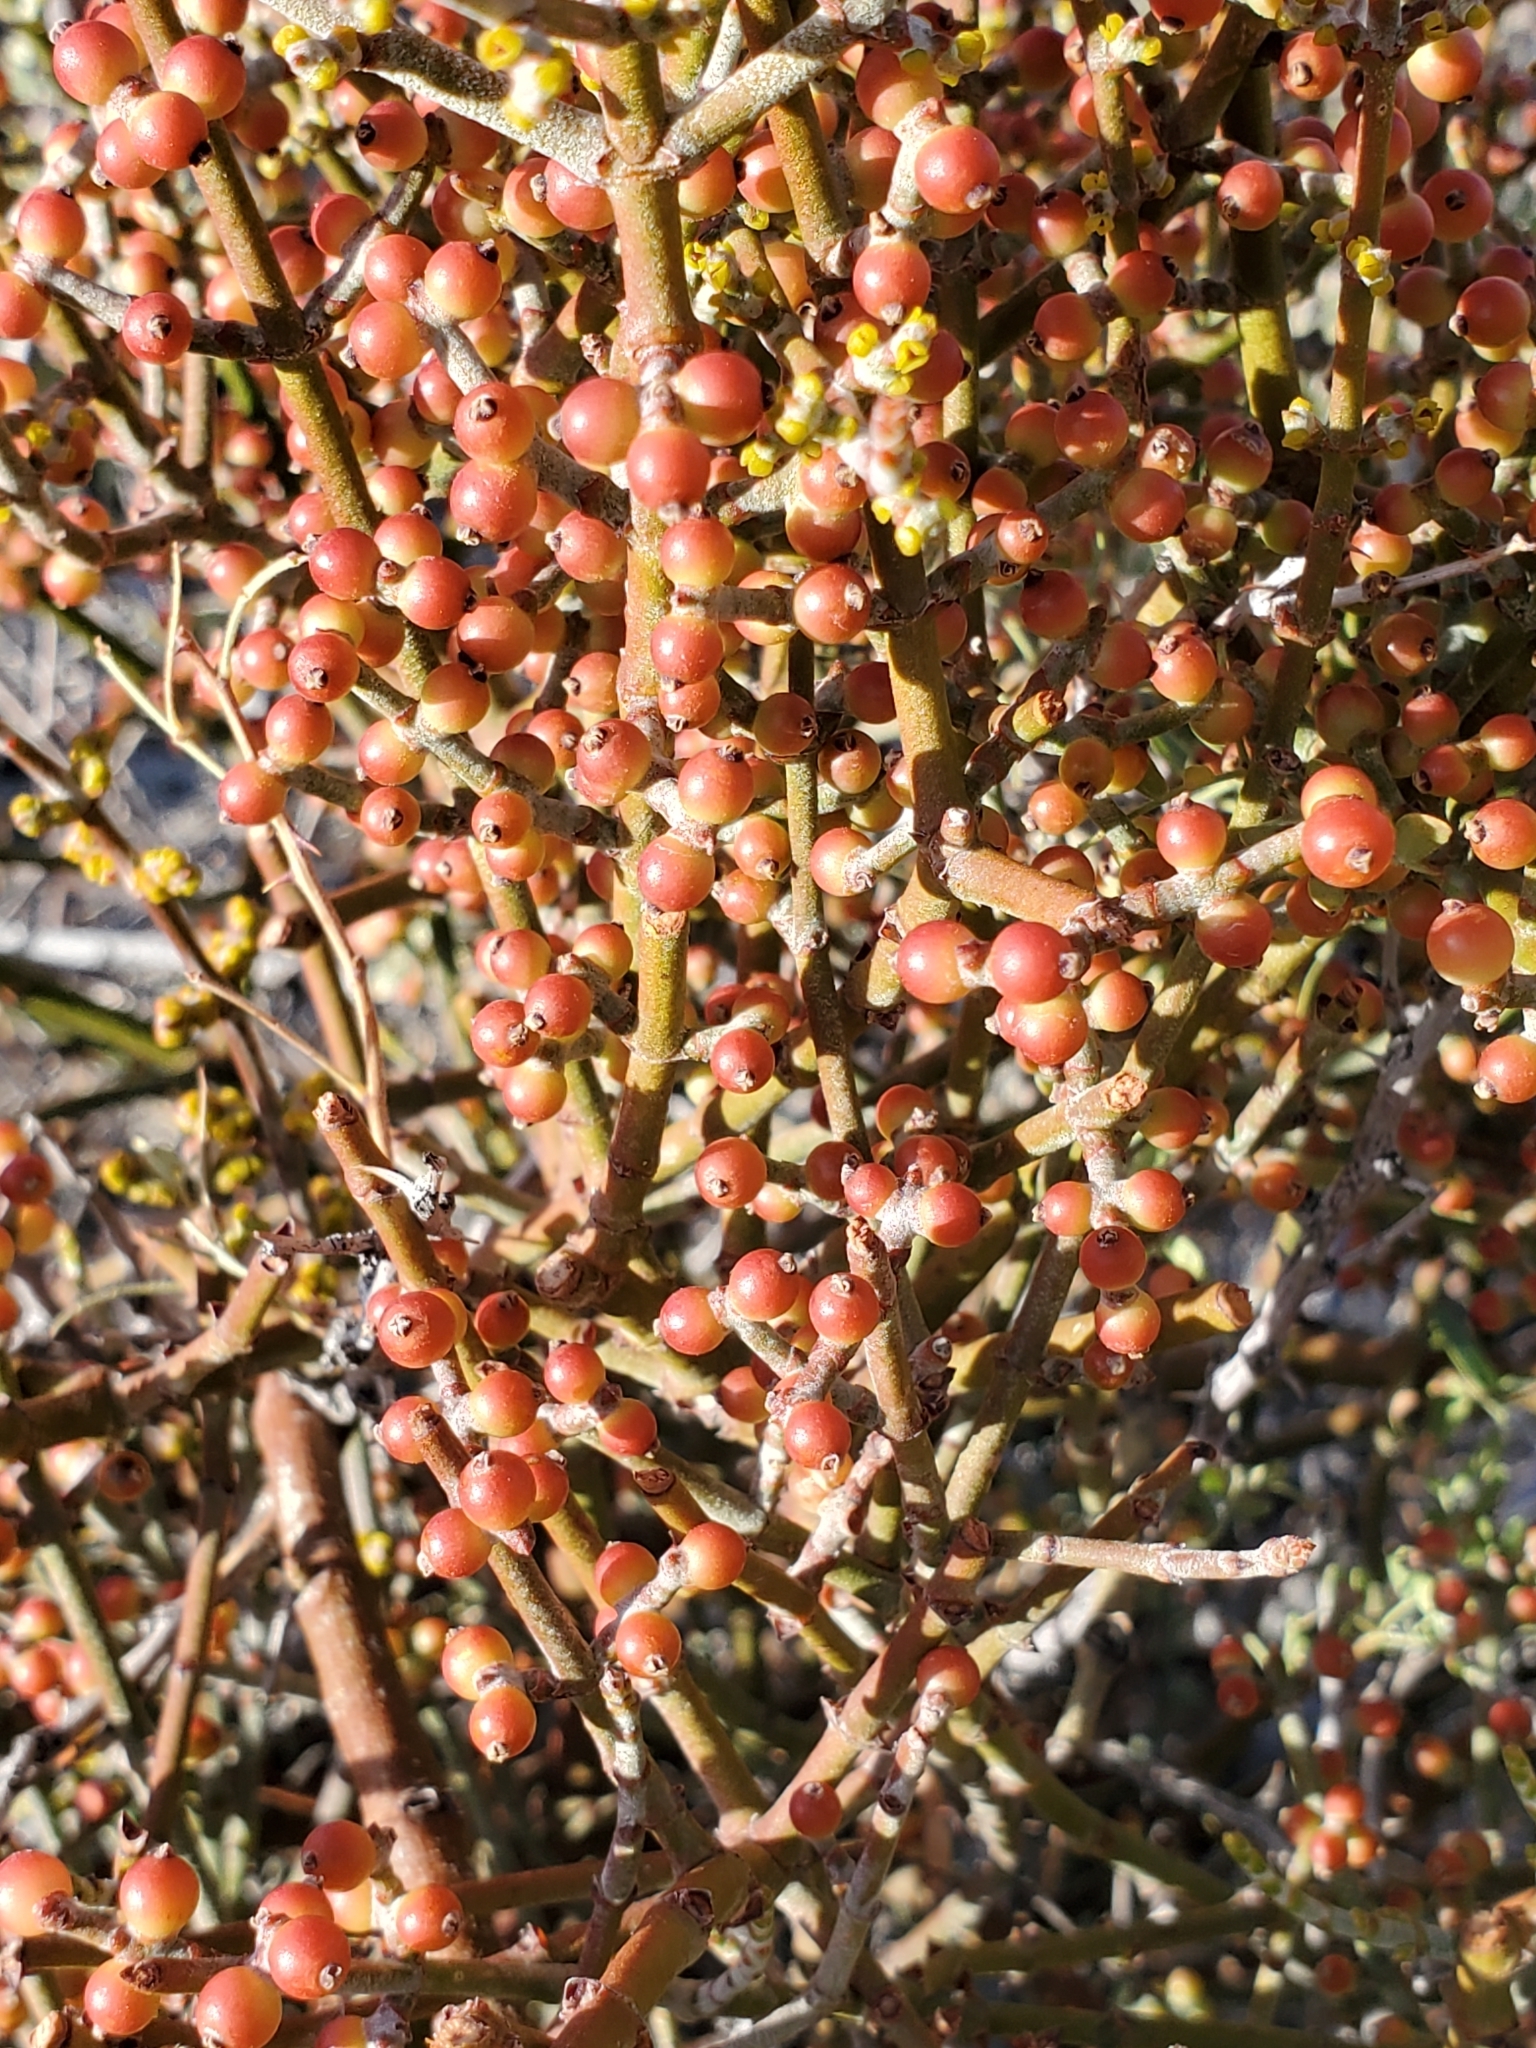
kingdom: Plantae
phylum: Tracheophyta
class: Magnoliopsida
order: Fabales
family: Fabaceae
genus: Senegalia
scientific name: Senegalia greggii
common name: Texas-mimosa
